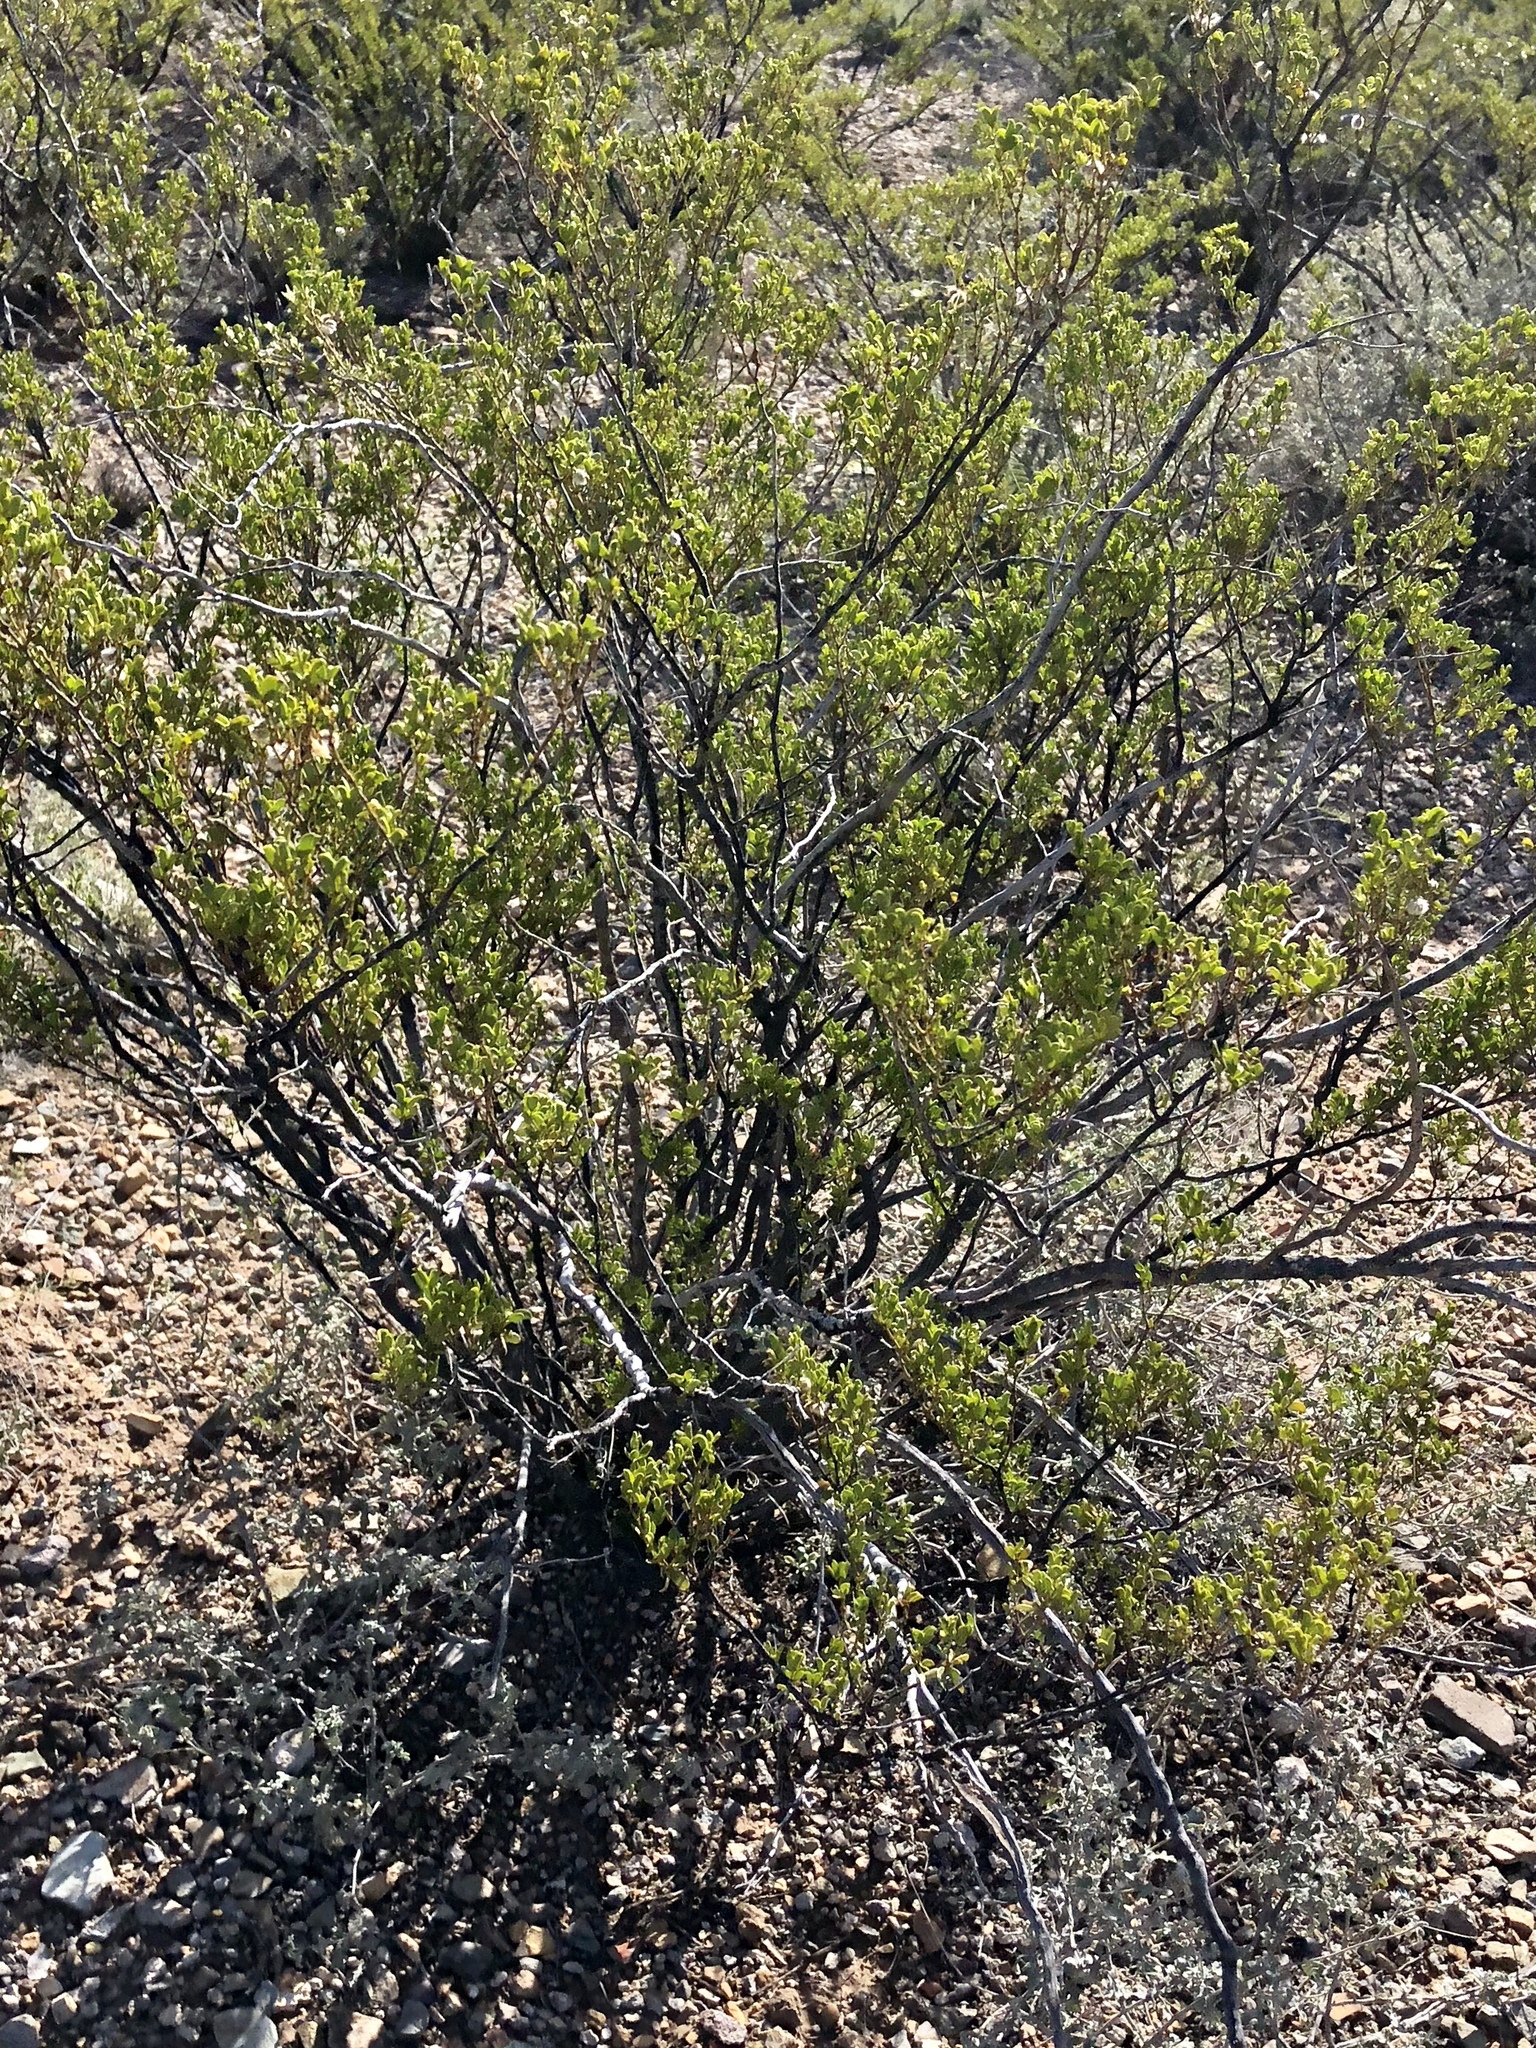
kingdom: Plantae
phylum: Tracheophyta
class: Magnoliopsida
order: Zygophyllales
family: Zygophyllaceae
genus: Larrea
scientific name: Larrea tridentata
